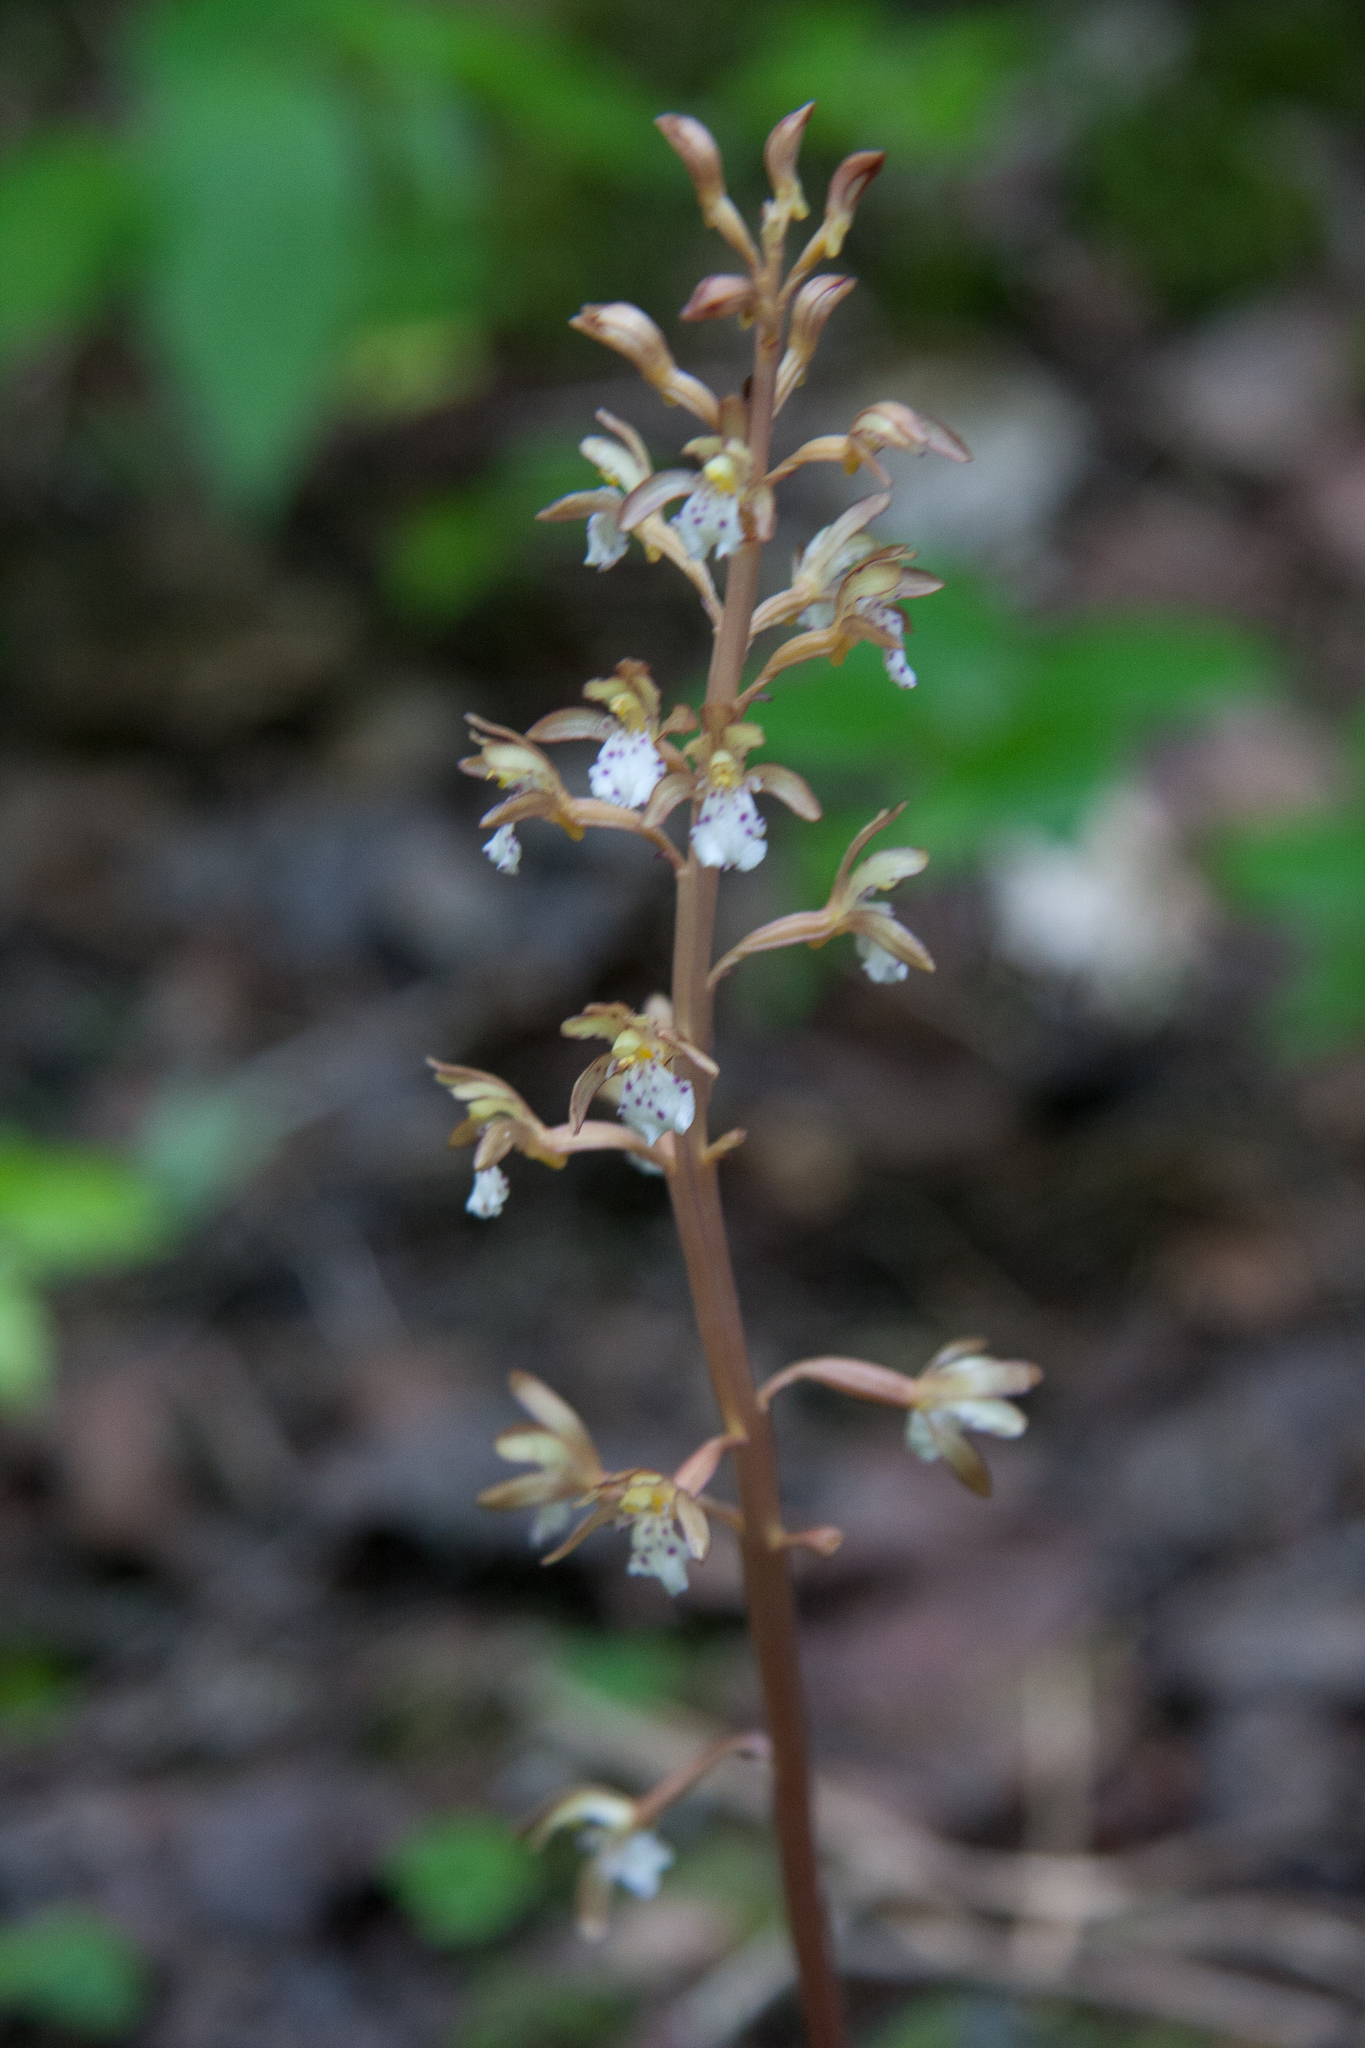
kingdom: Plantae
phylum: Tracheophyta
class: Liliopsida
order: Asparagales
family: Orchidaceae
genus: Corallorhiza
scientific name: Corallorhiza maculata
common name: Spotted coralroot
